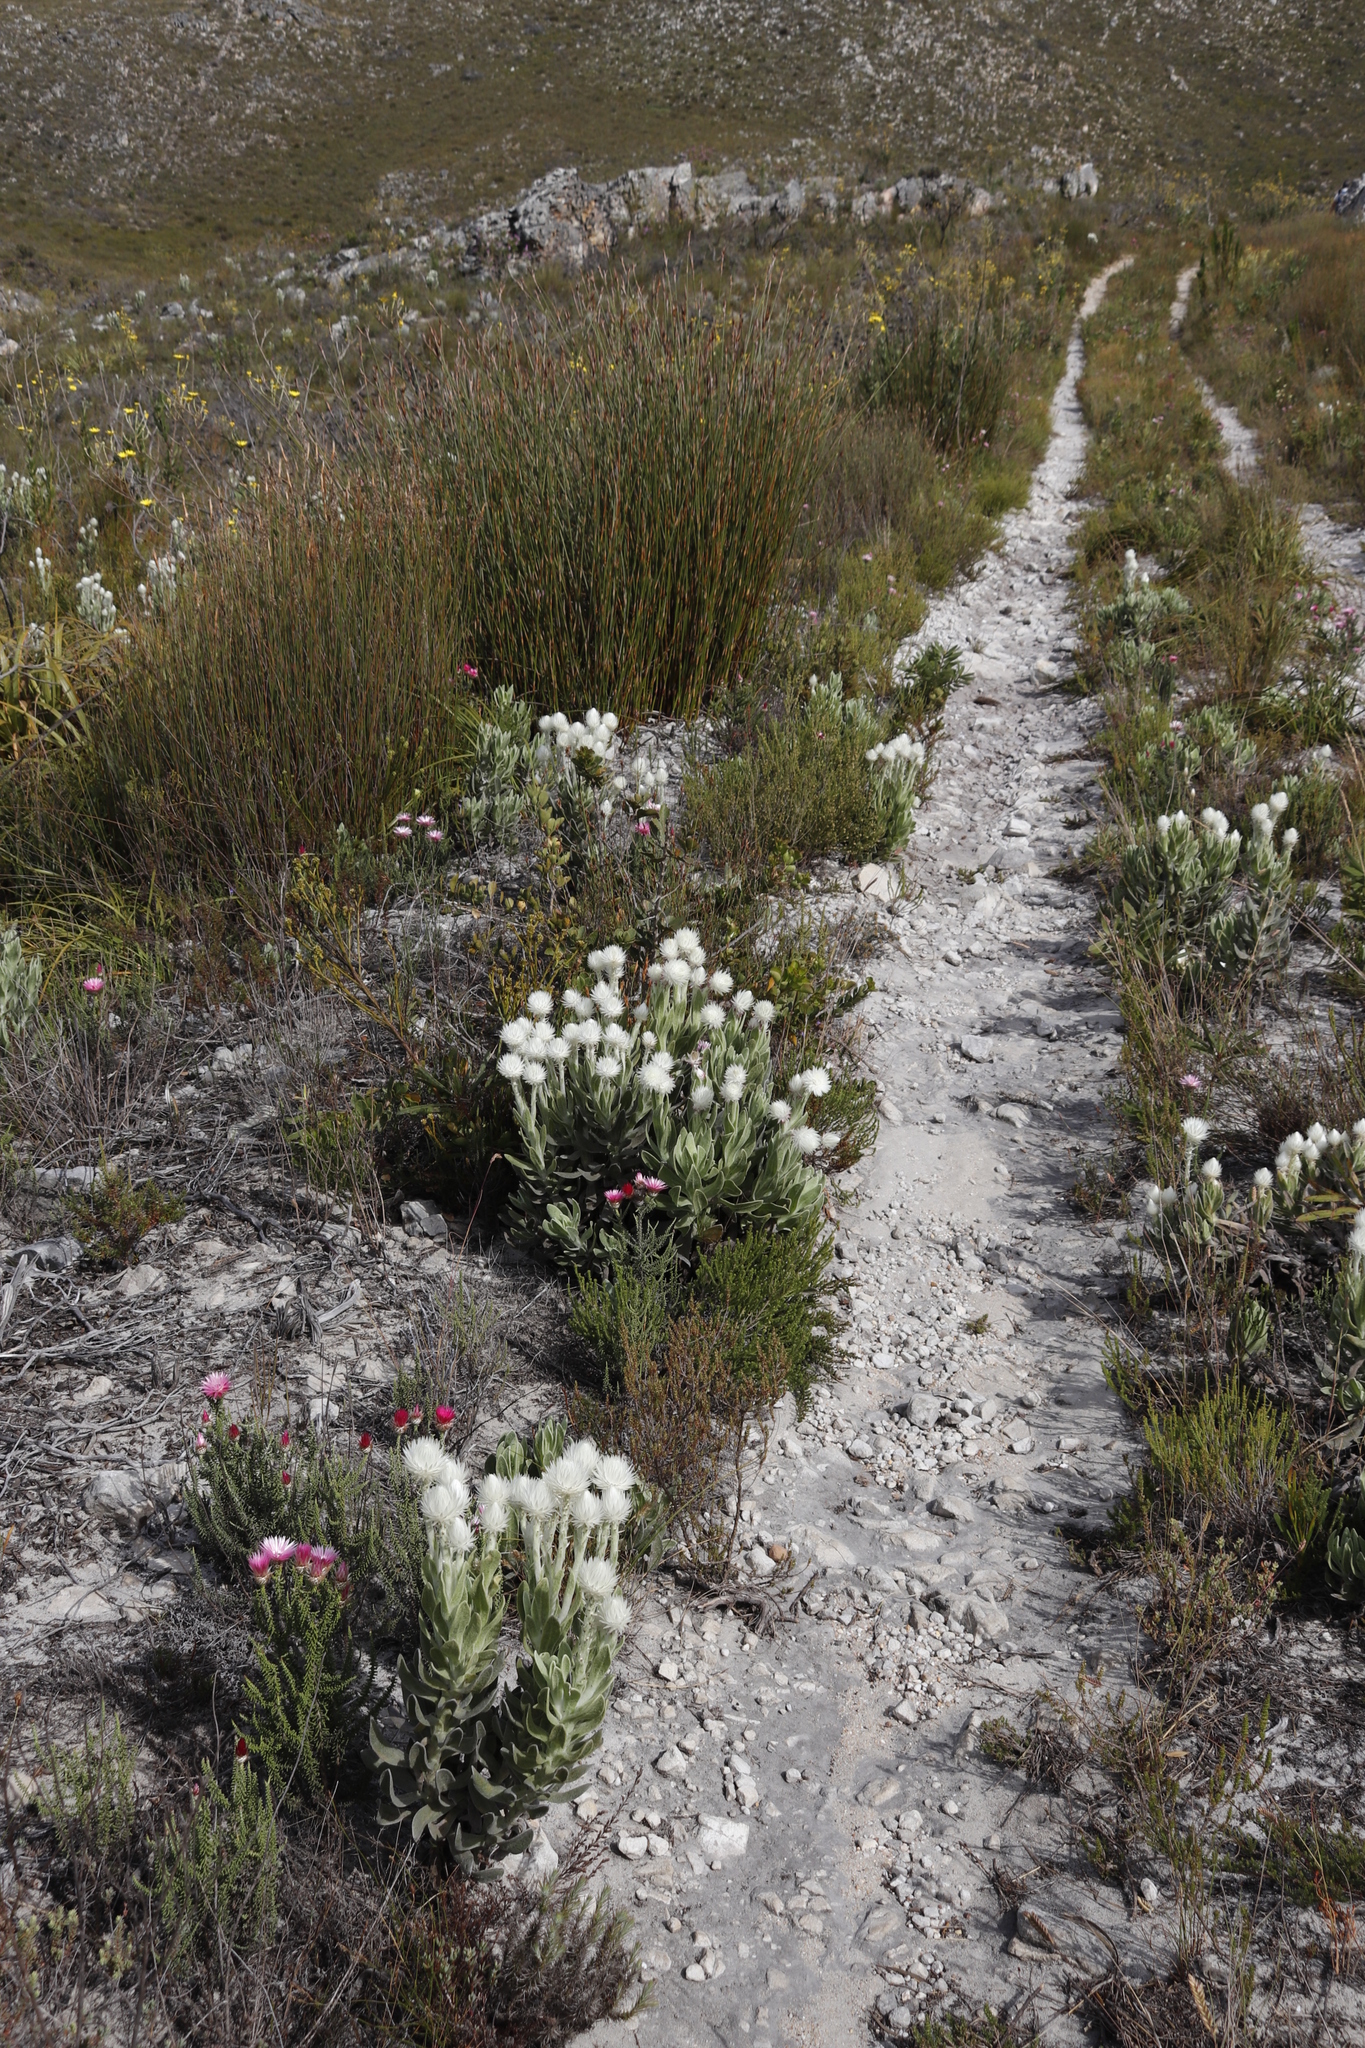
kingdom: Plantae
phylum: Tracheophyta
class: Magnoliopsida
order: Asterales
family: Asteraceae
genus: Syncarpha
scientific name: Syncarpha vestita
